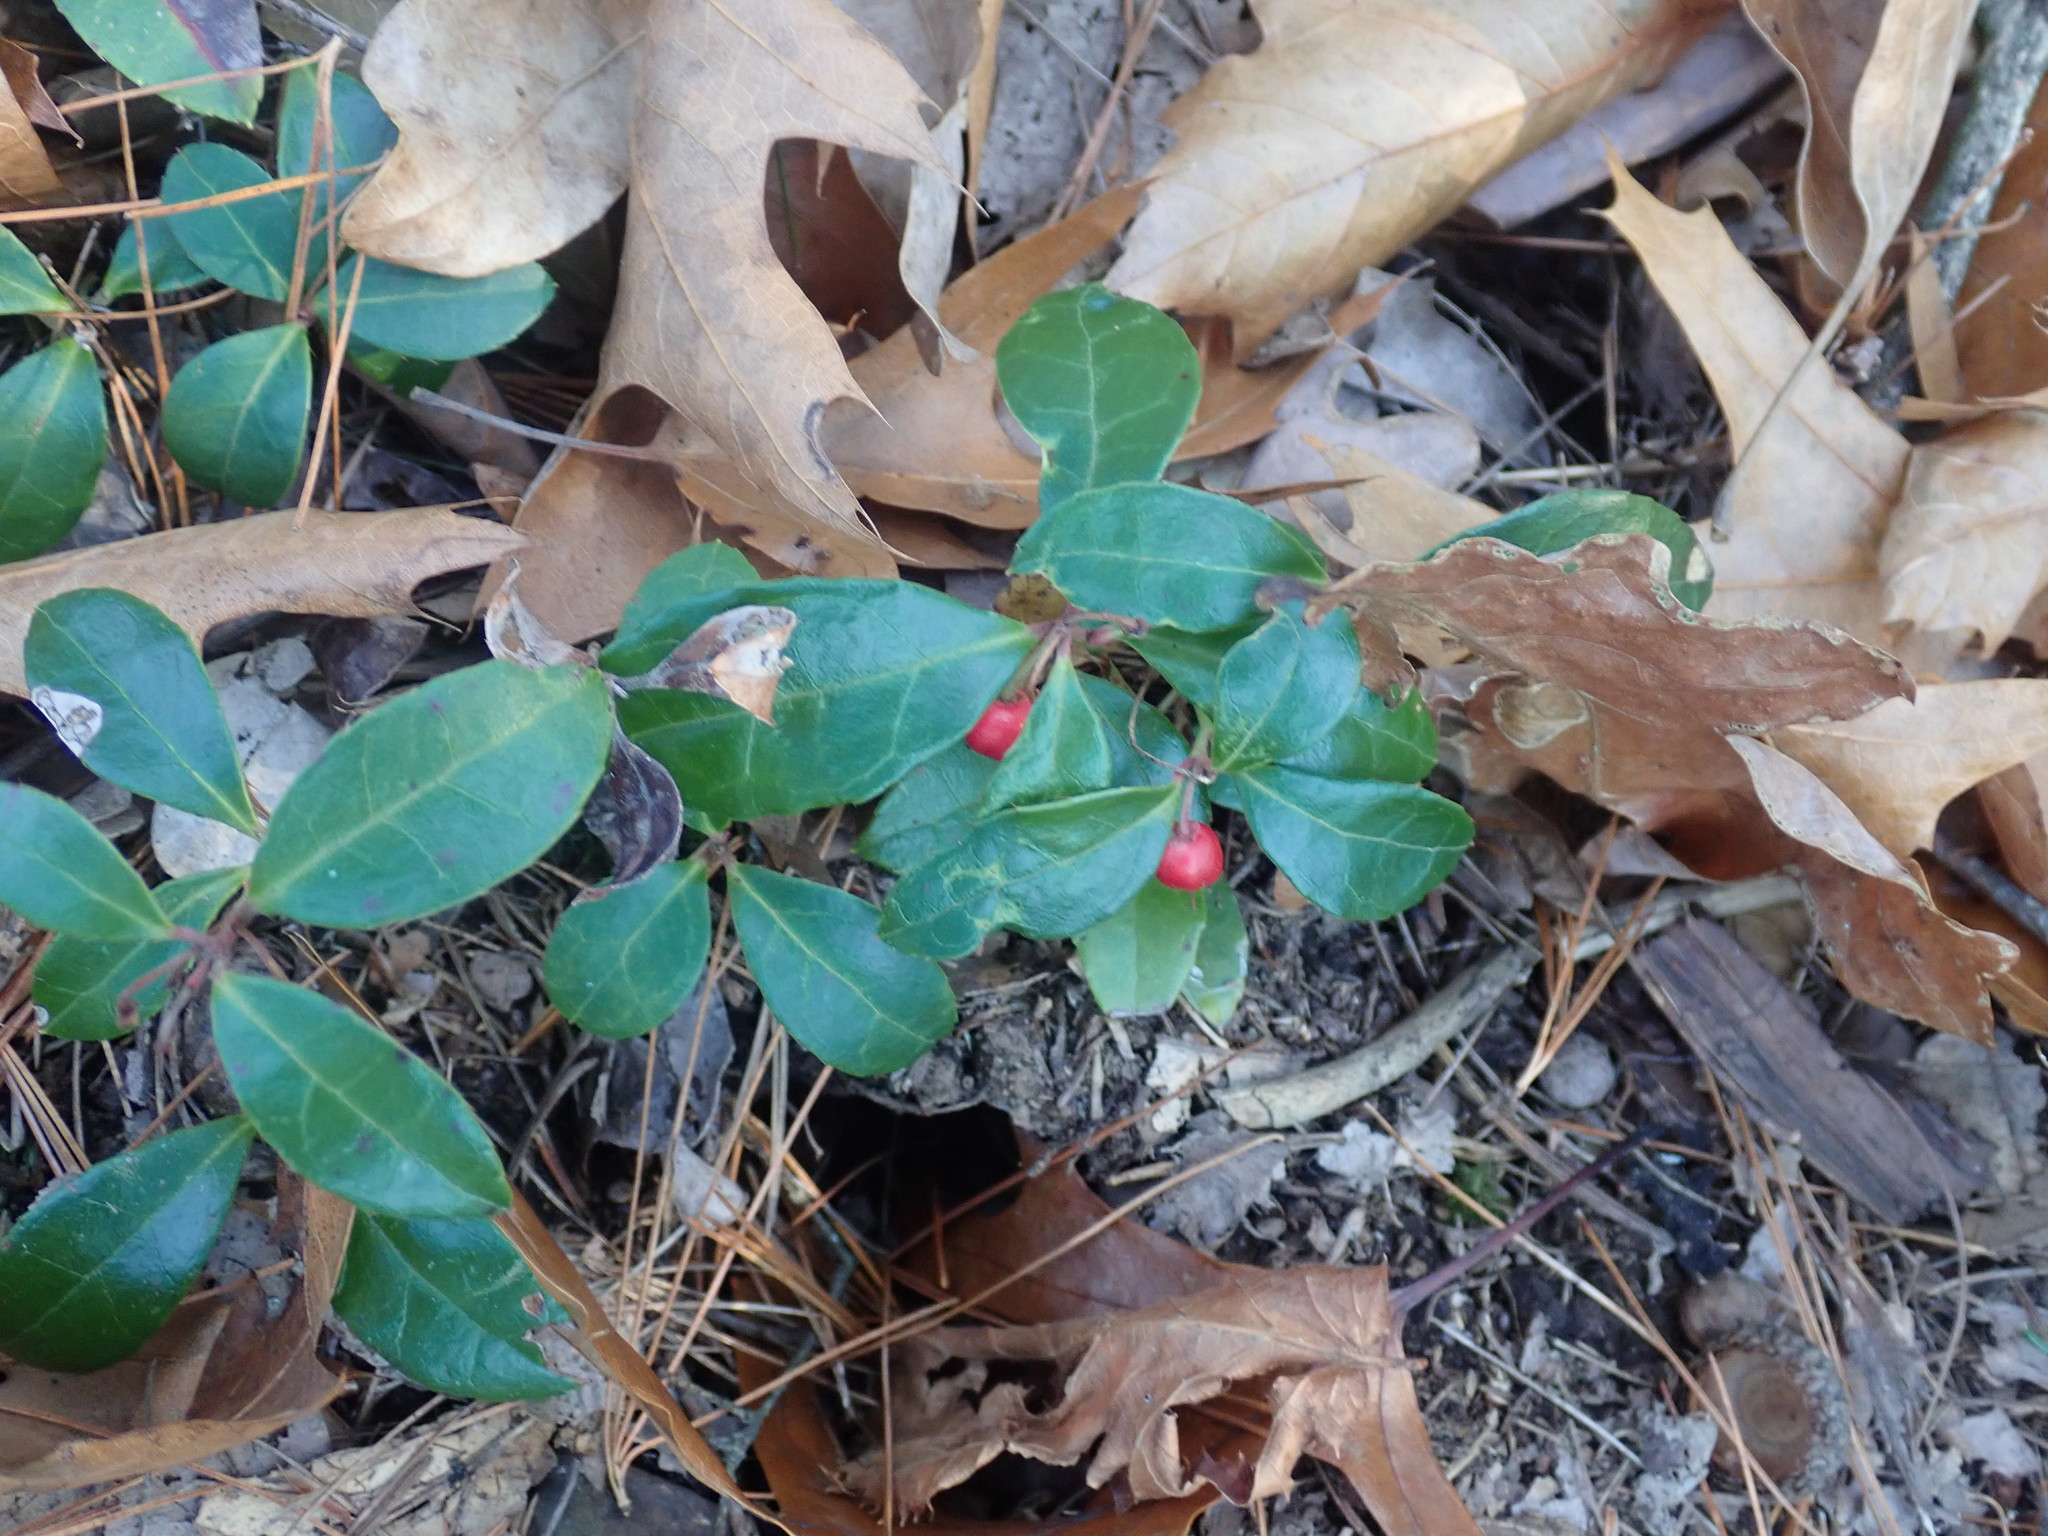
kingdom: Plantae
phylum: Tracheophyta
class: Magnoliopsida
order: Ericales
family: Ericaceae
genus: Gaultheria
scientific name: Gaultheria procumbens
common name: Checkerberry
